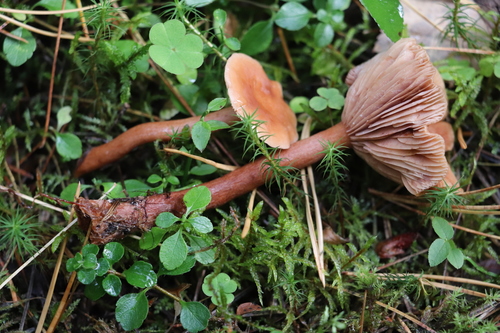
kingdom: Fungi
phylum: Basidiomycota
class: Agaricomycetes
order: Russulales
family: Russulaceae
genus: Lactarius
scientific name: Lactarius aurantiacus
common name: Orange milkcap
